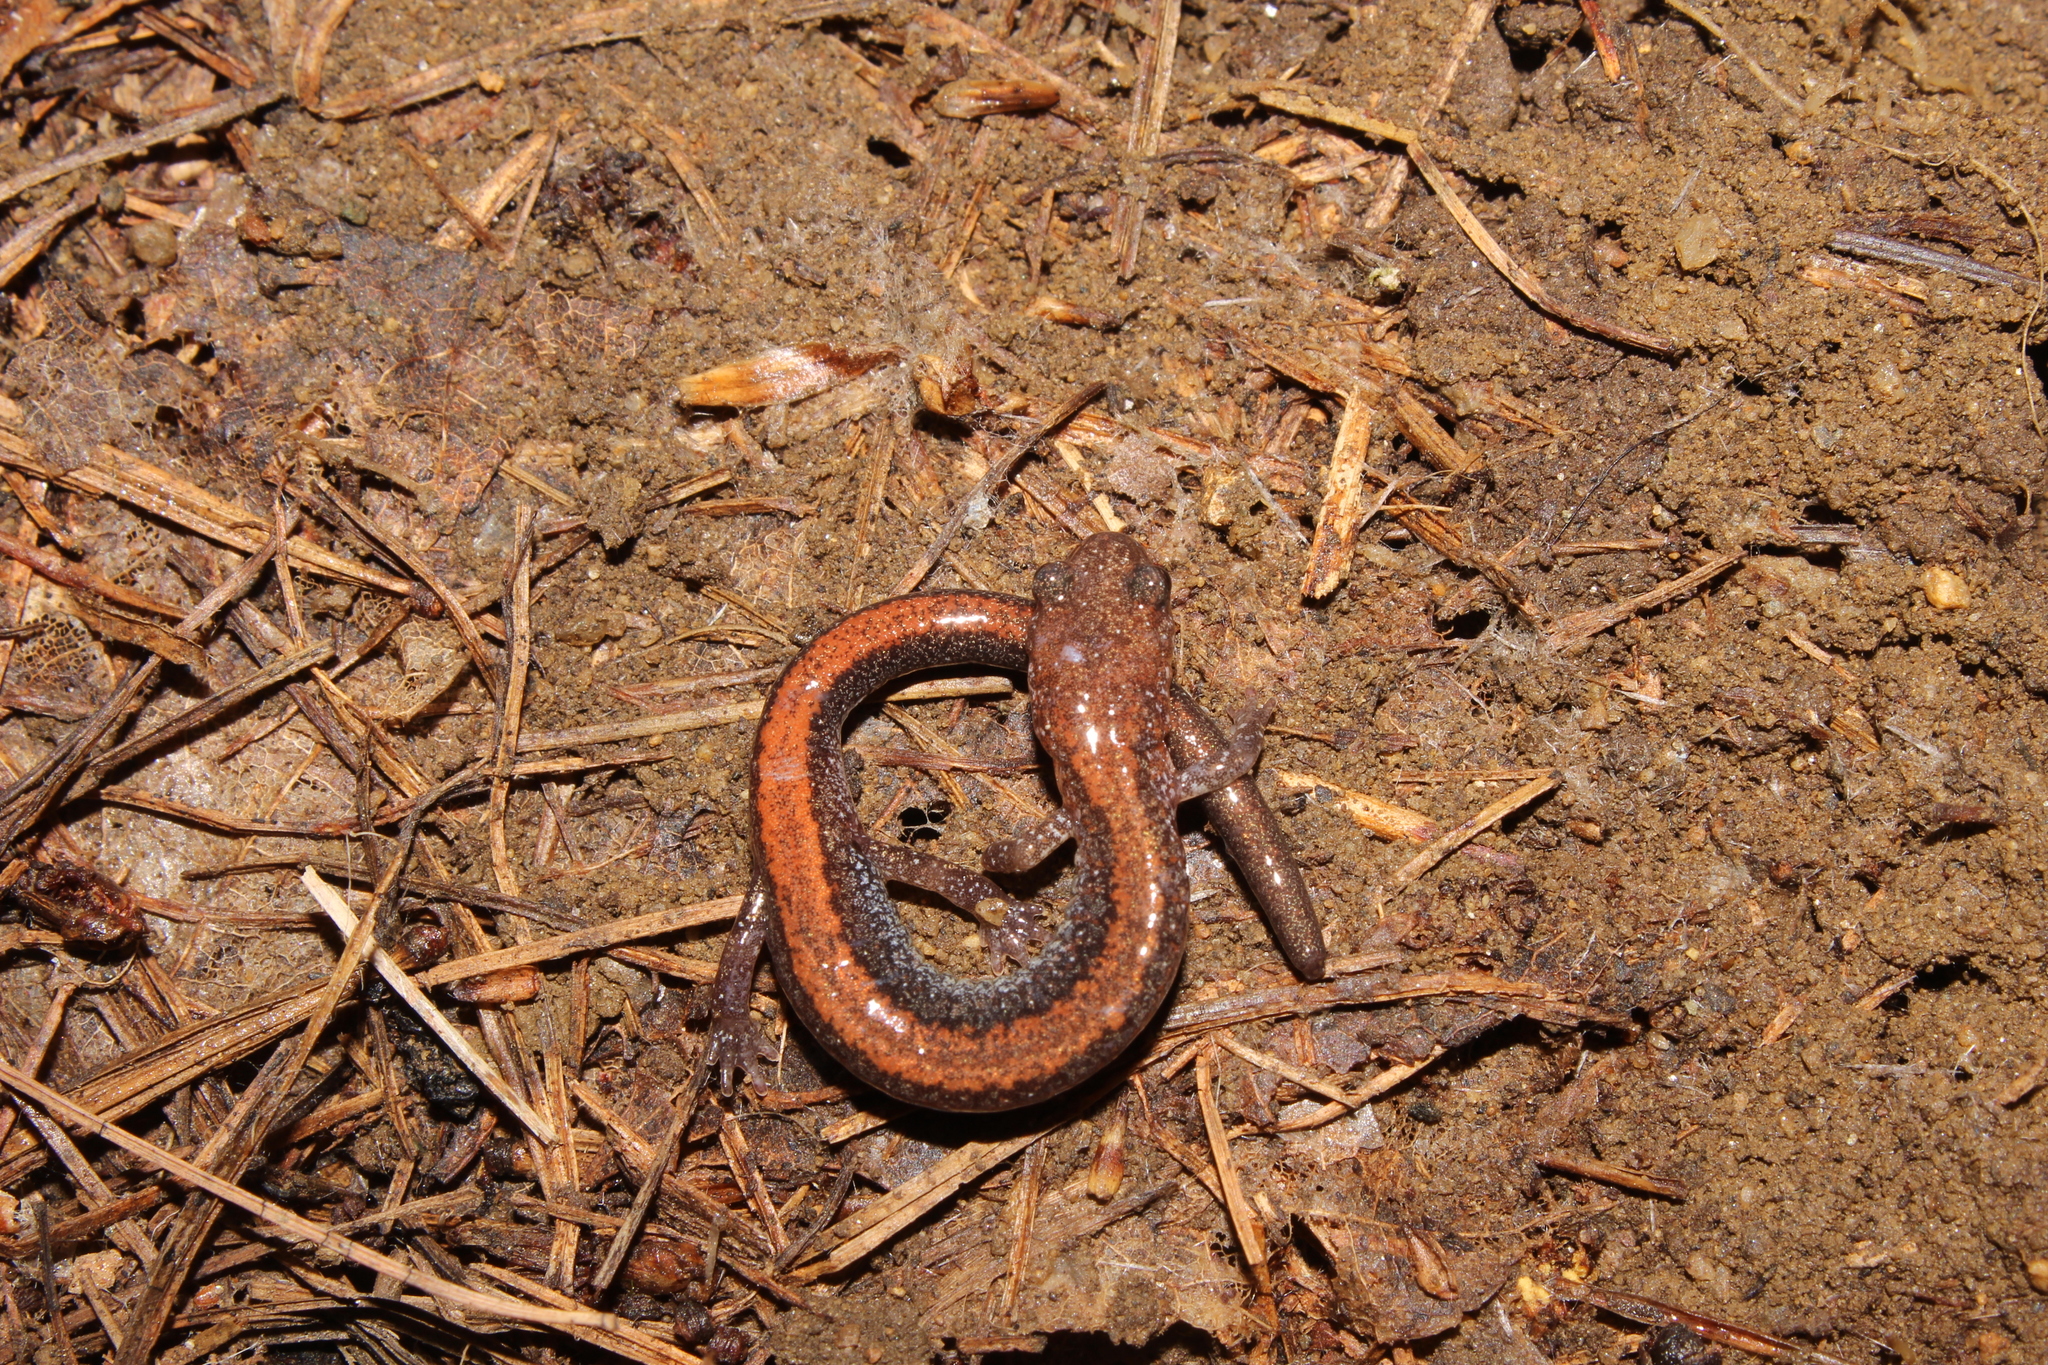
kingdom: Animalia
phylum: Chordata
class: Amphibia
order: Caudata
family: Plethodontidae
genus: Plethodon
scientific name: Plethodon cinereus
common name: Redback salamander
